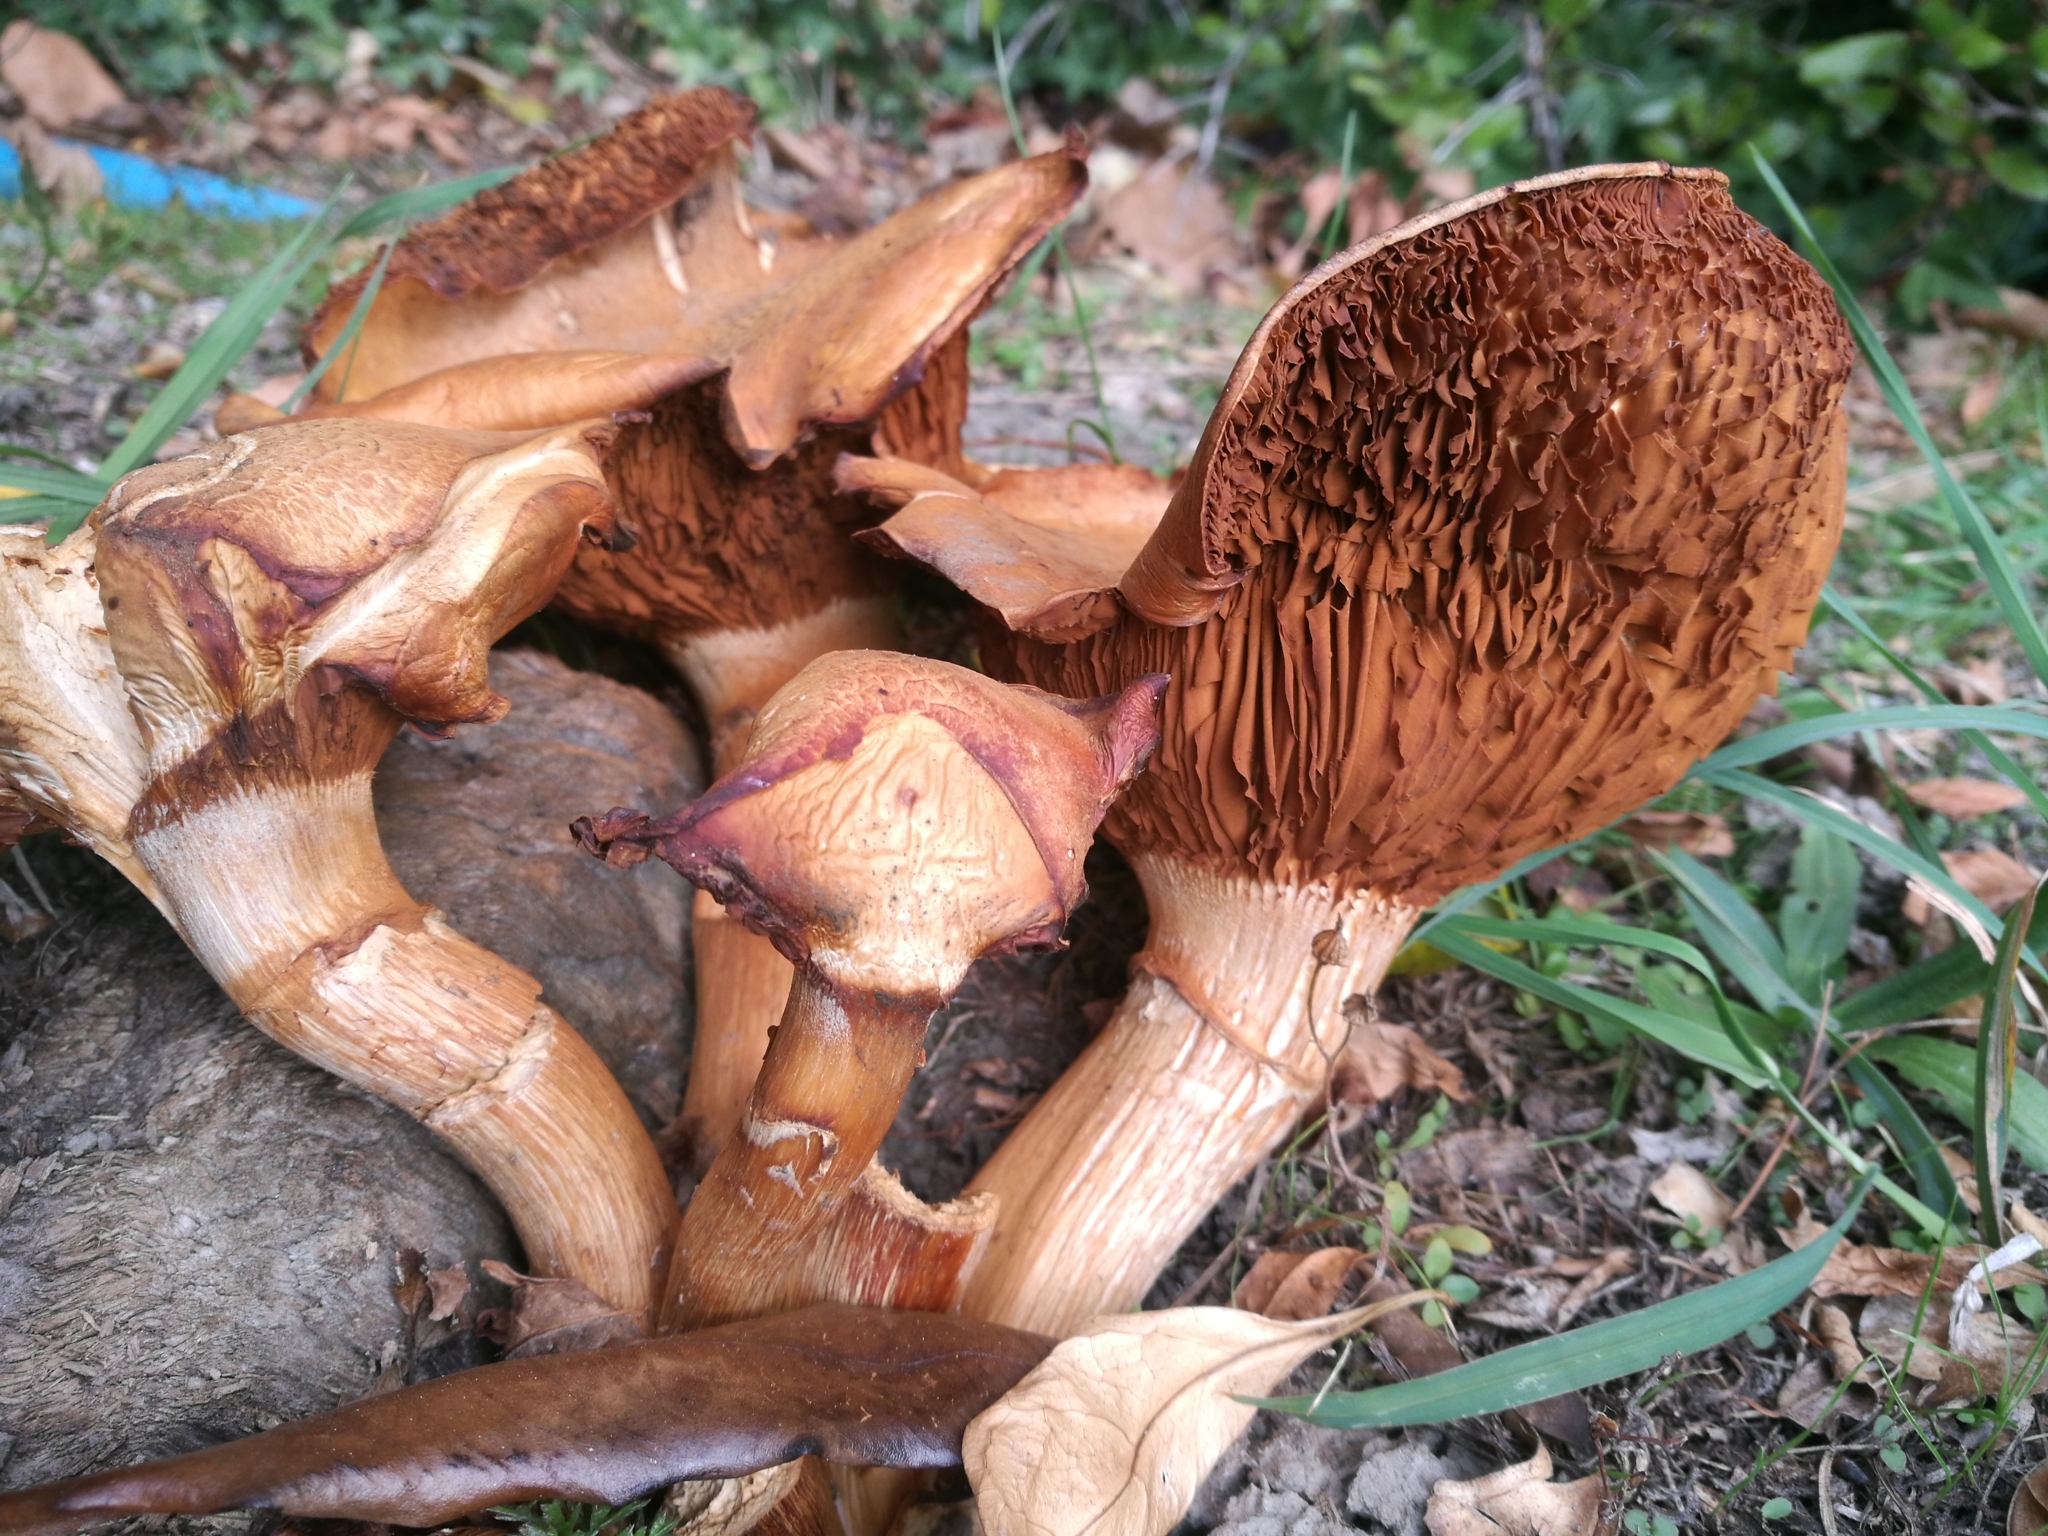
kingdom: Fungi
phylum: Basidiomycota
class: Agaricomycetes
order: Agaricales
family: Hymenogastraceae
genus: Gymnopilus
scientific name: Gymnopilus junonius
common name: Spectacular rustgill
